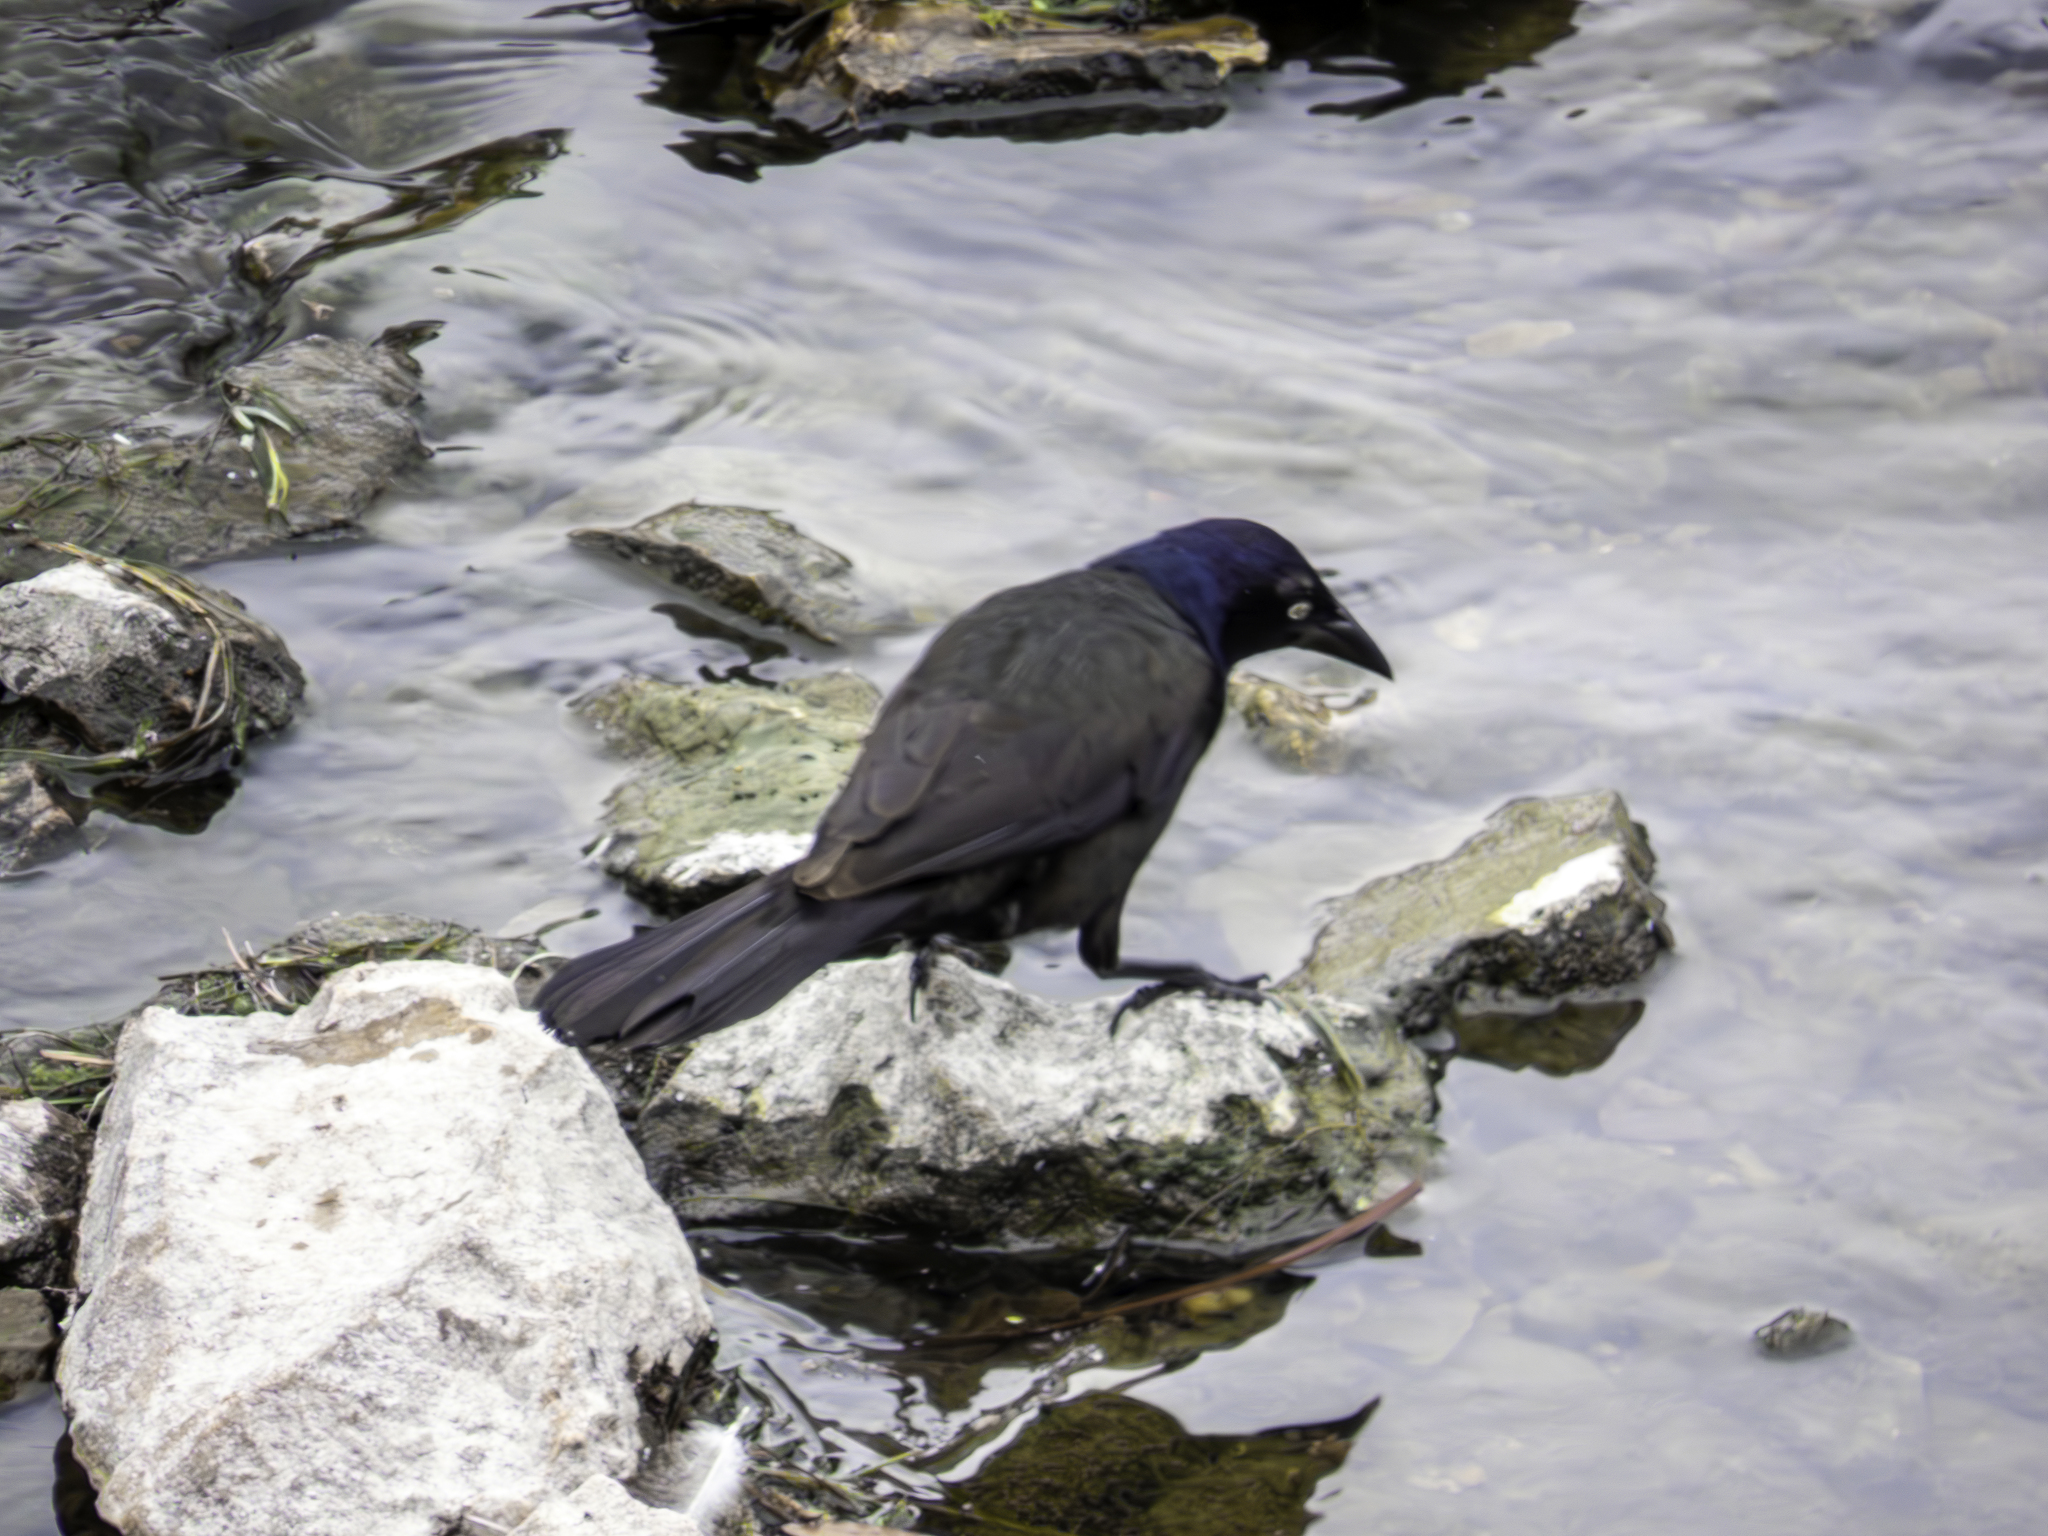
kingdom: Animalia
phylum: Chordata
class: Aves
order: Passeriformes
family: Icteridae
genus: Quiscalus
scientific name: Quiscalus quiscula
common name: Common grackle
